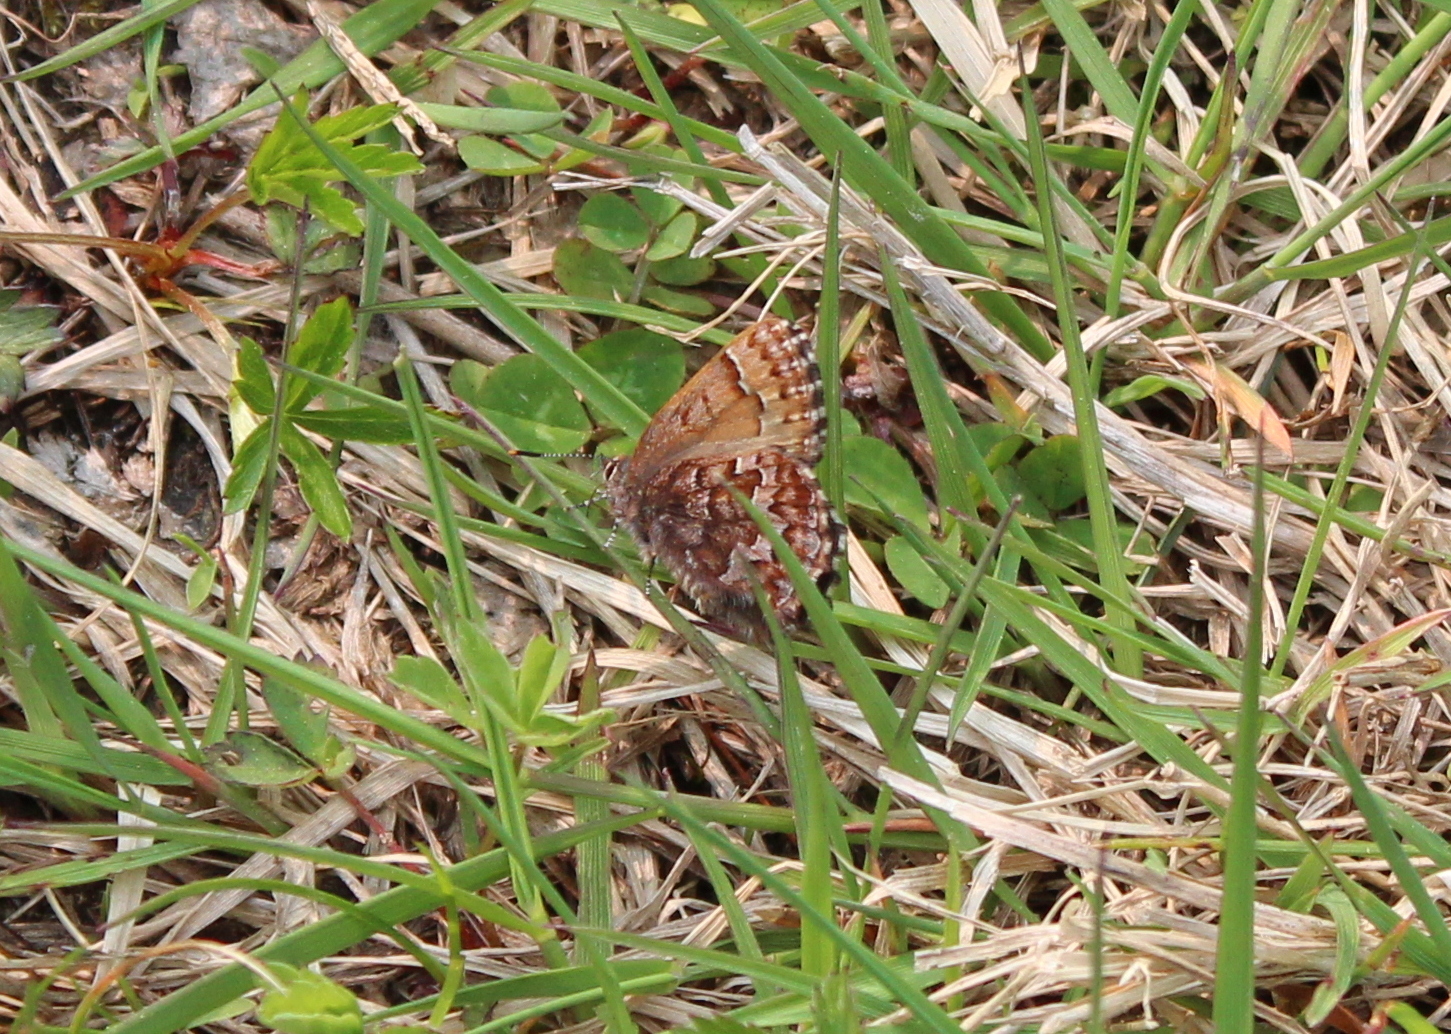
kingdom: Animalia
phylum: Arthropoda
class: Insecta
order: Lepidoptera
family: Lycaenidae
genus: Incisalia
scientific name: Incisalia niphon
